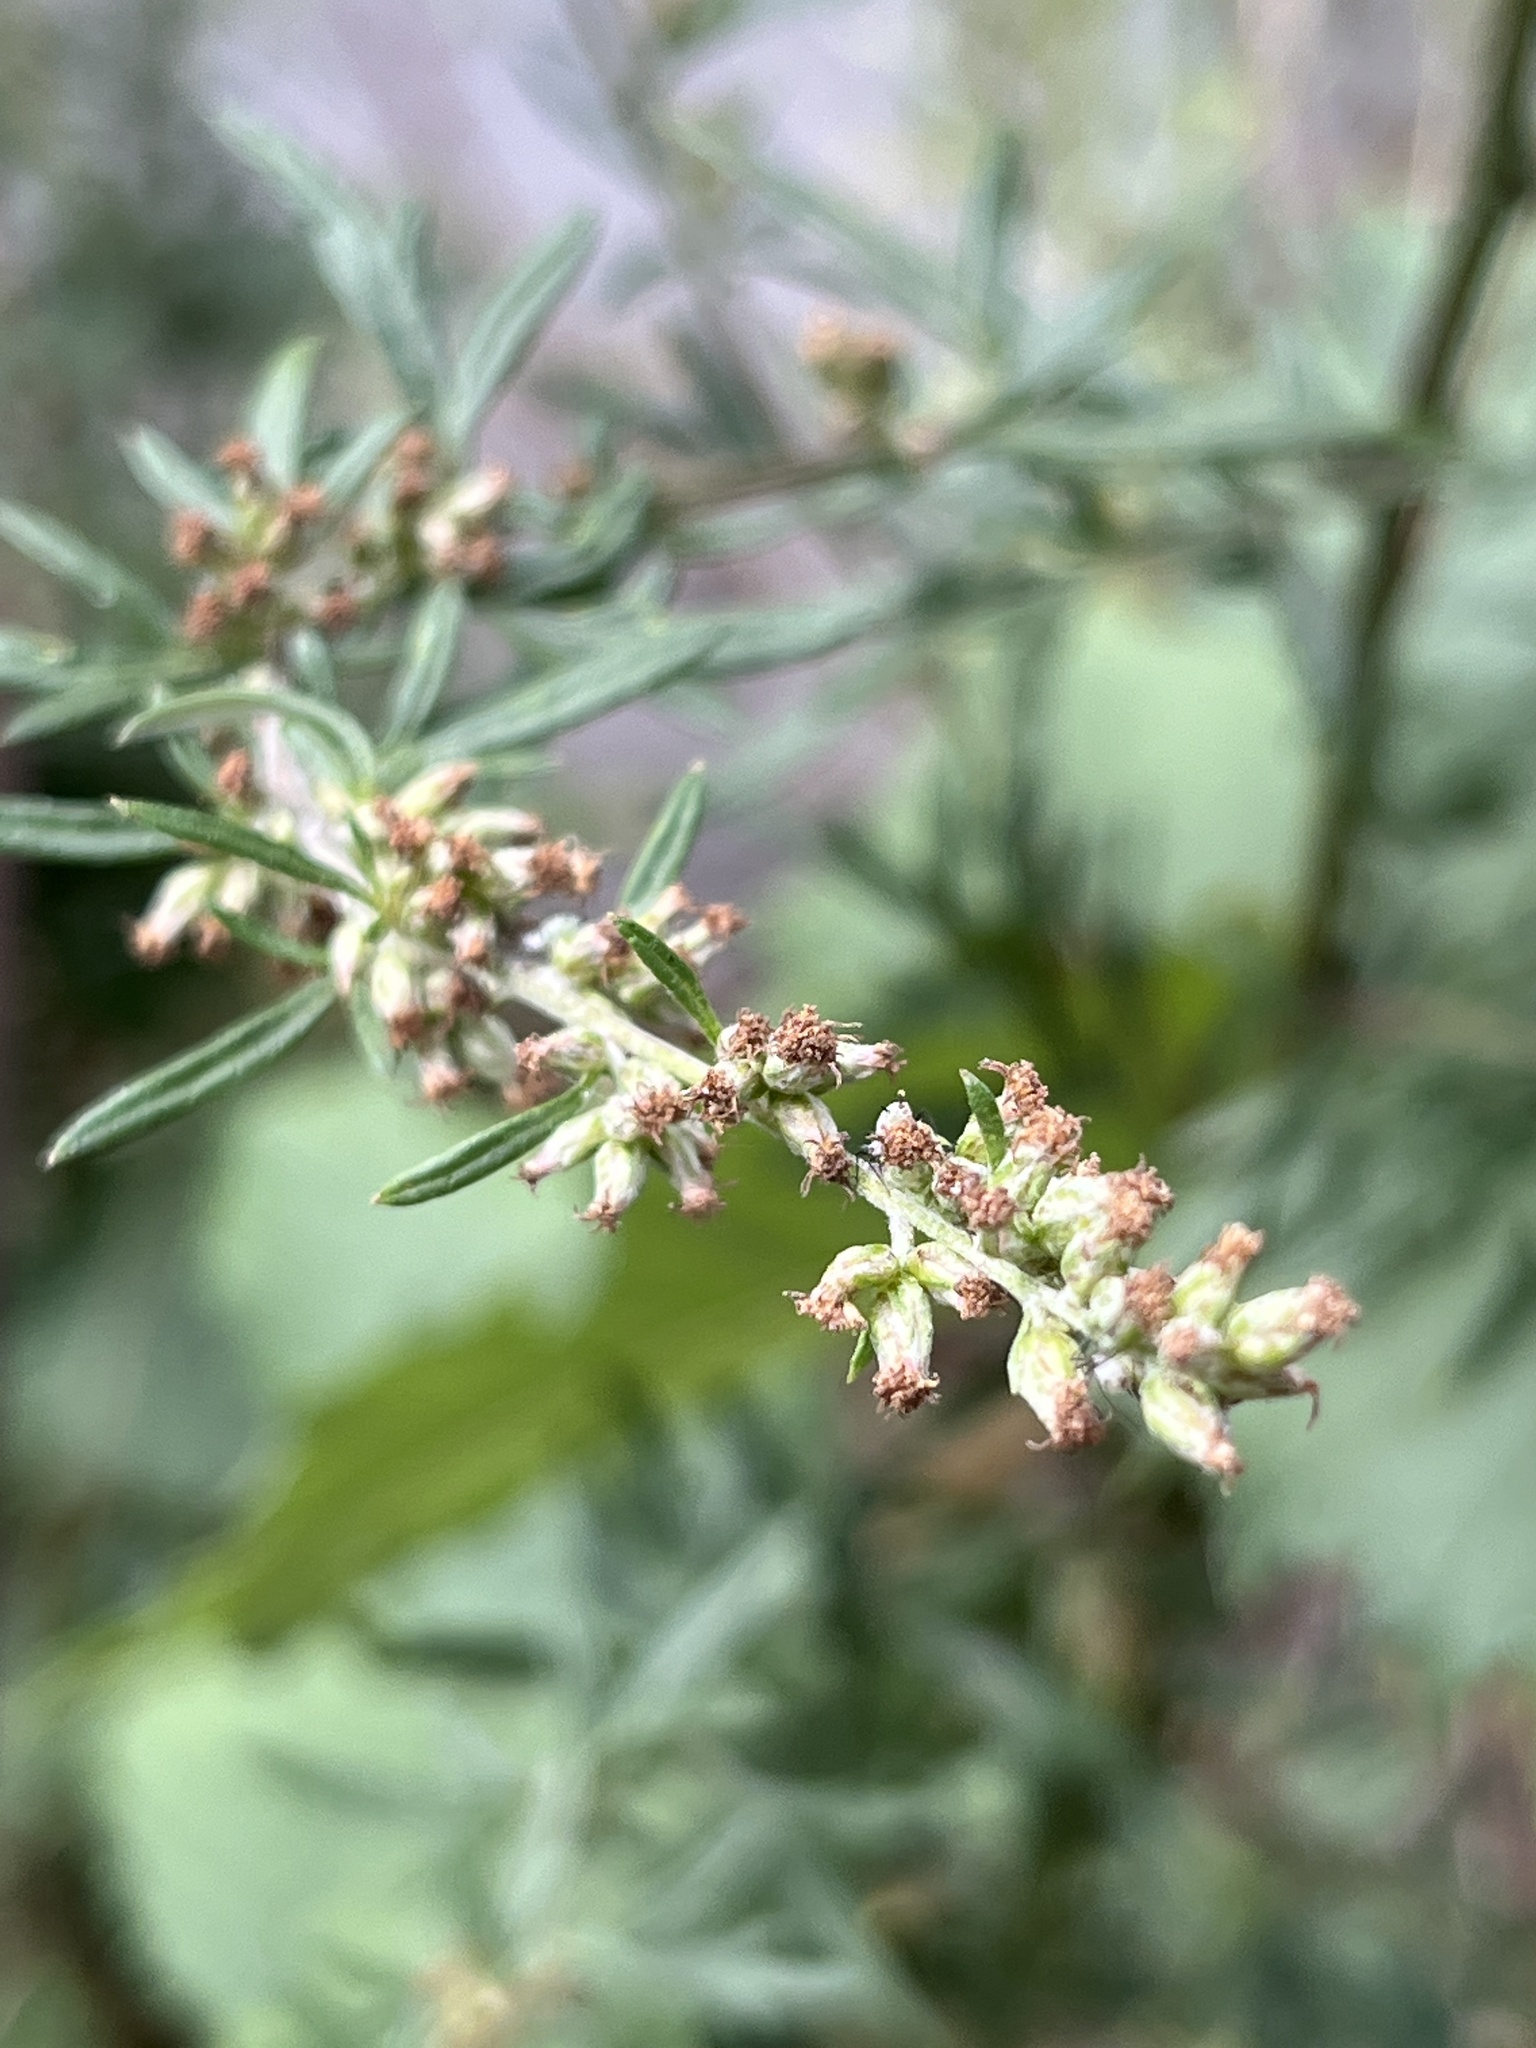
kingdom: Plantae
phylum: Tracheophyta
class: Magnoliopsida
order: Asterales
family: Asteraceae
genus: Artemisia
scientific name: Artemisia vulgaris
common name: Mugwort
